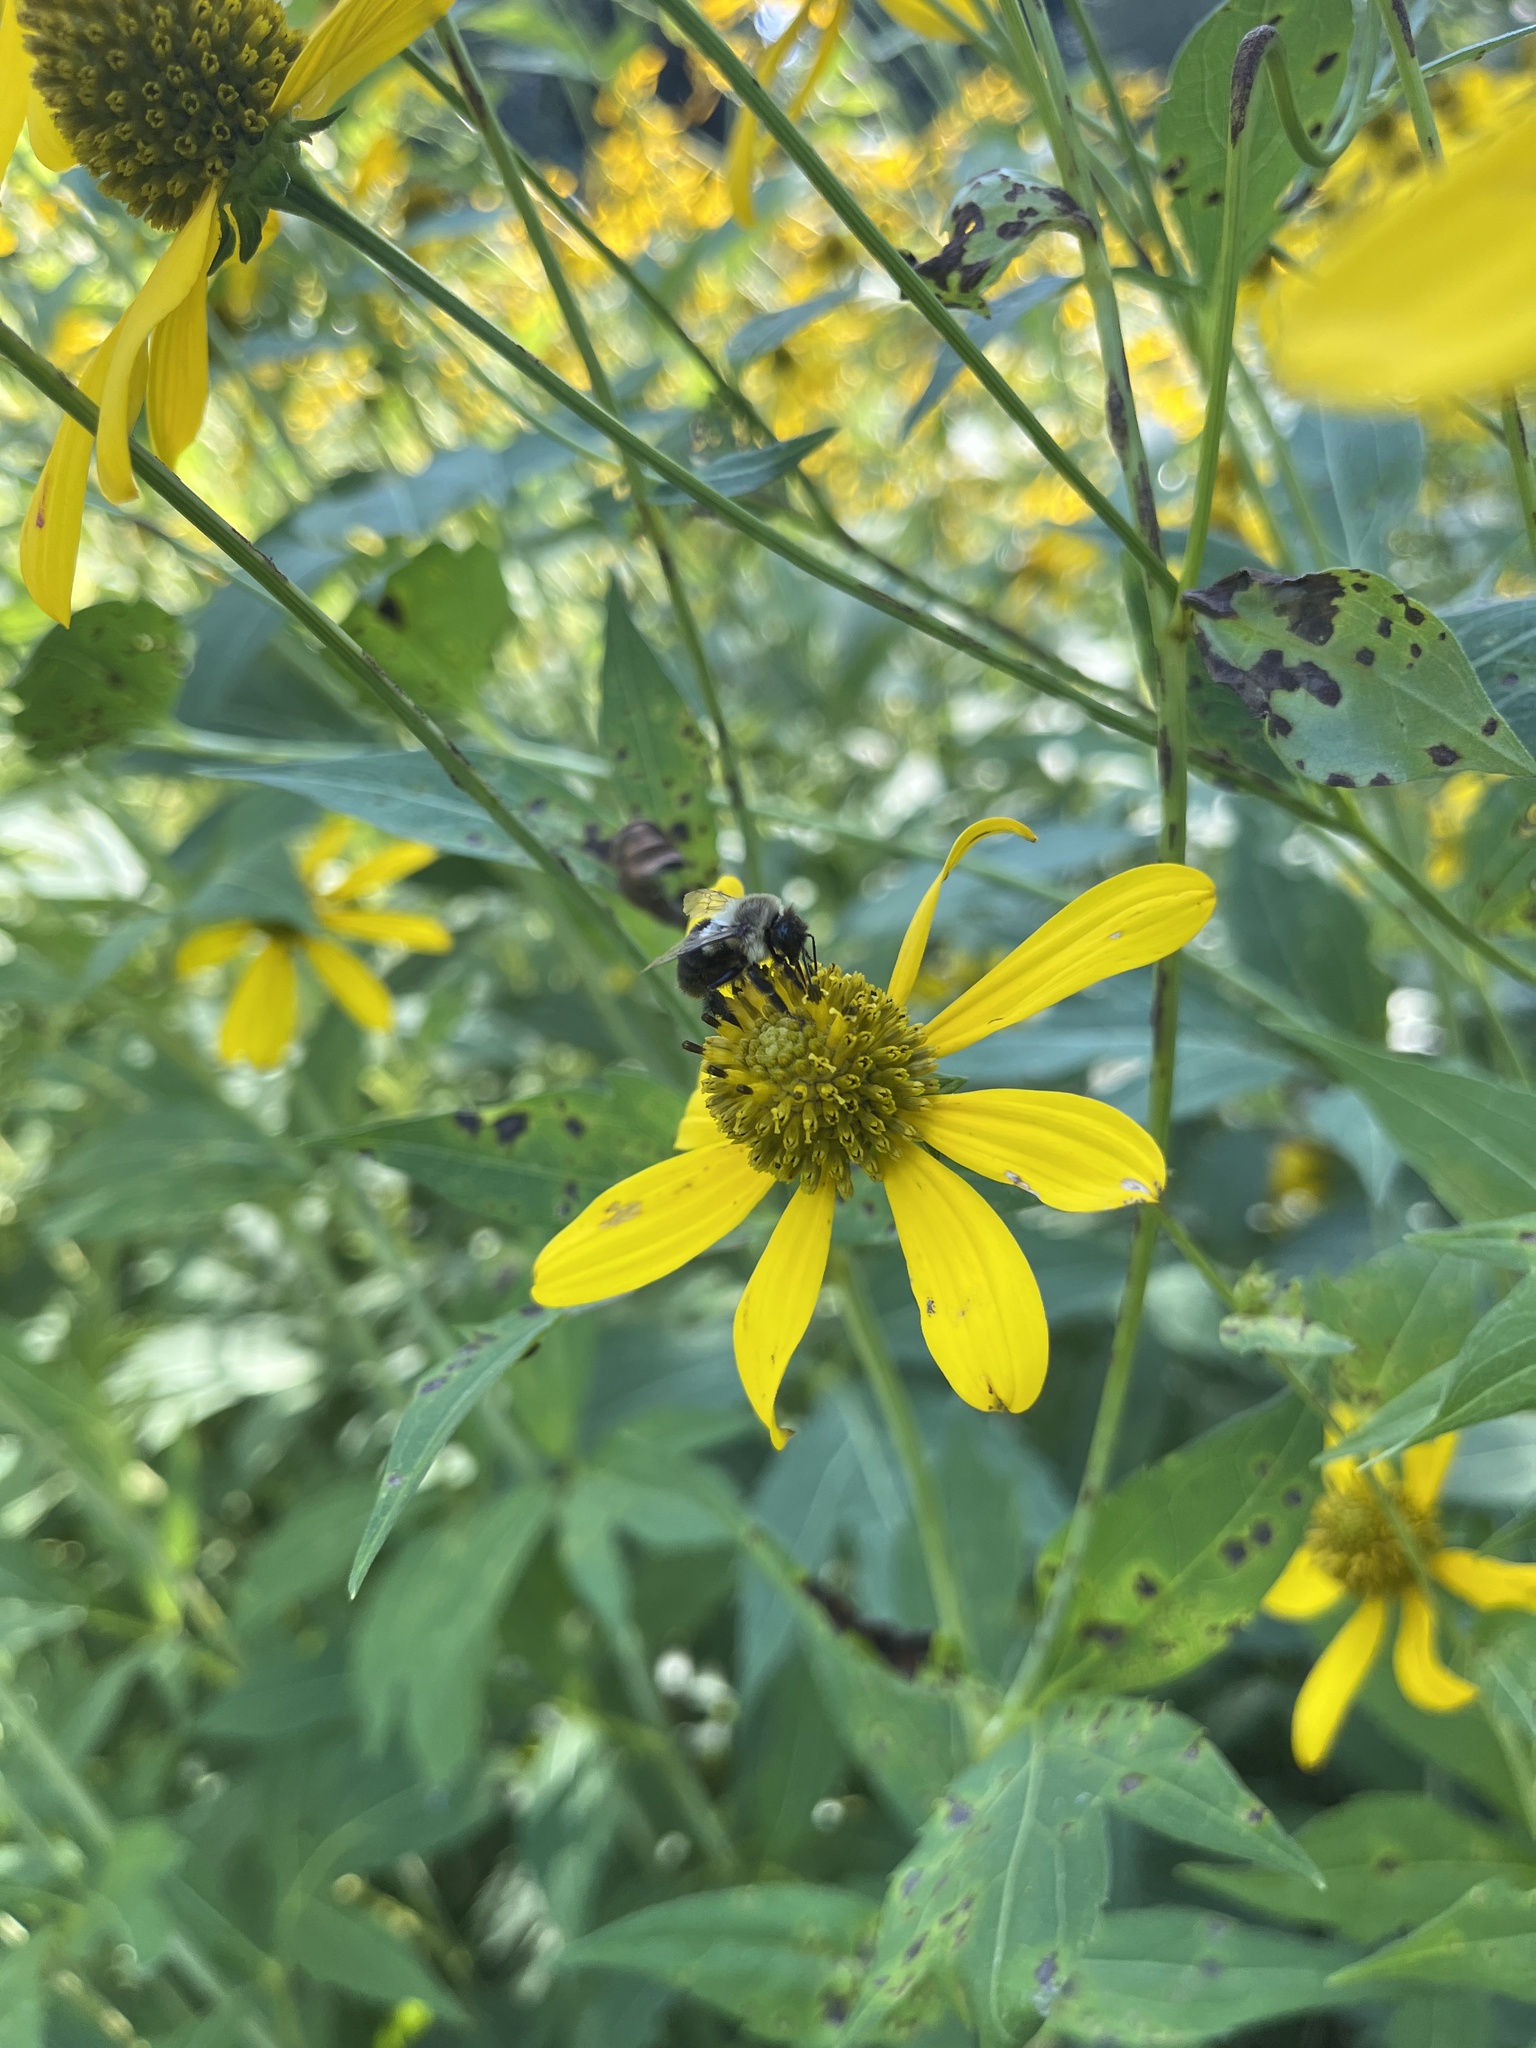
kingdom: Plantae
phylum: Tracheophyta
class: Magnoliopsida
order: Asterales
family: Asteraceae
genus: Rudbeckia
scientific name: Rudbeckia laciniata
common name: Coneflower
